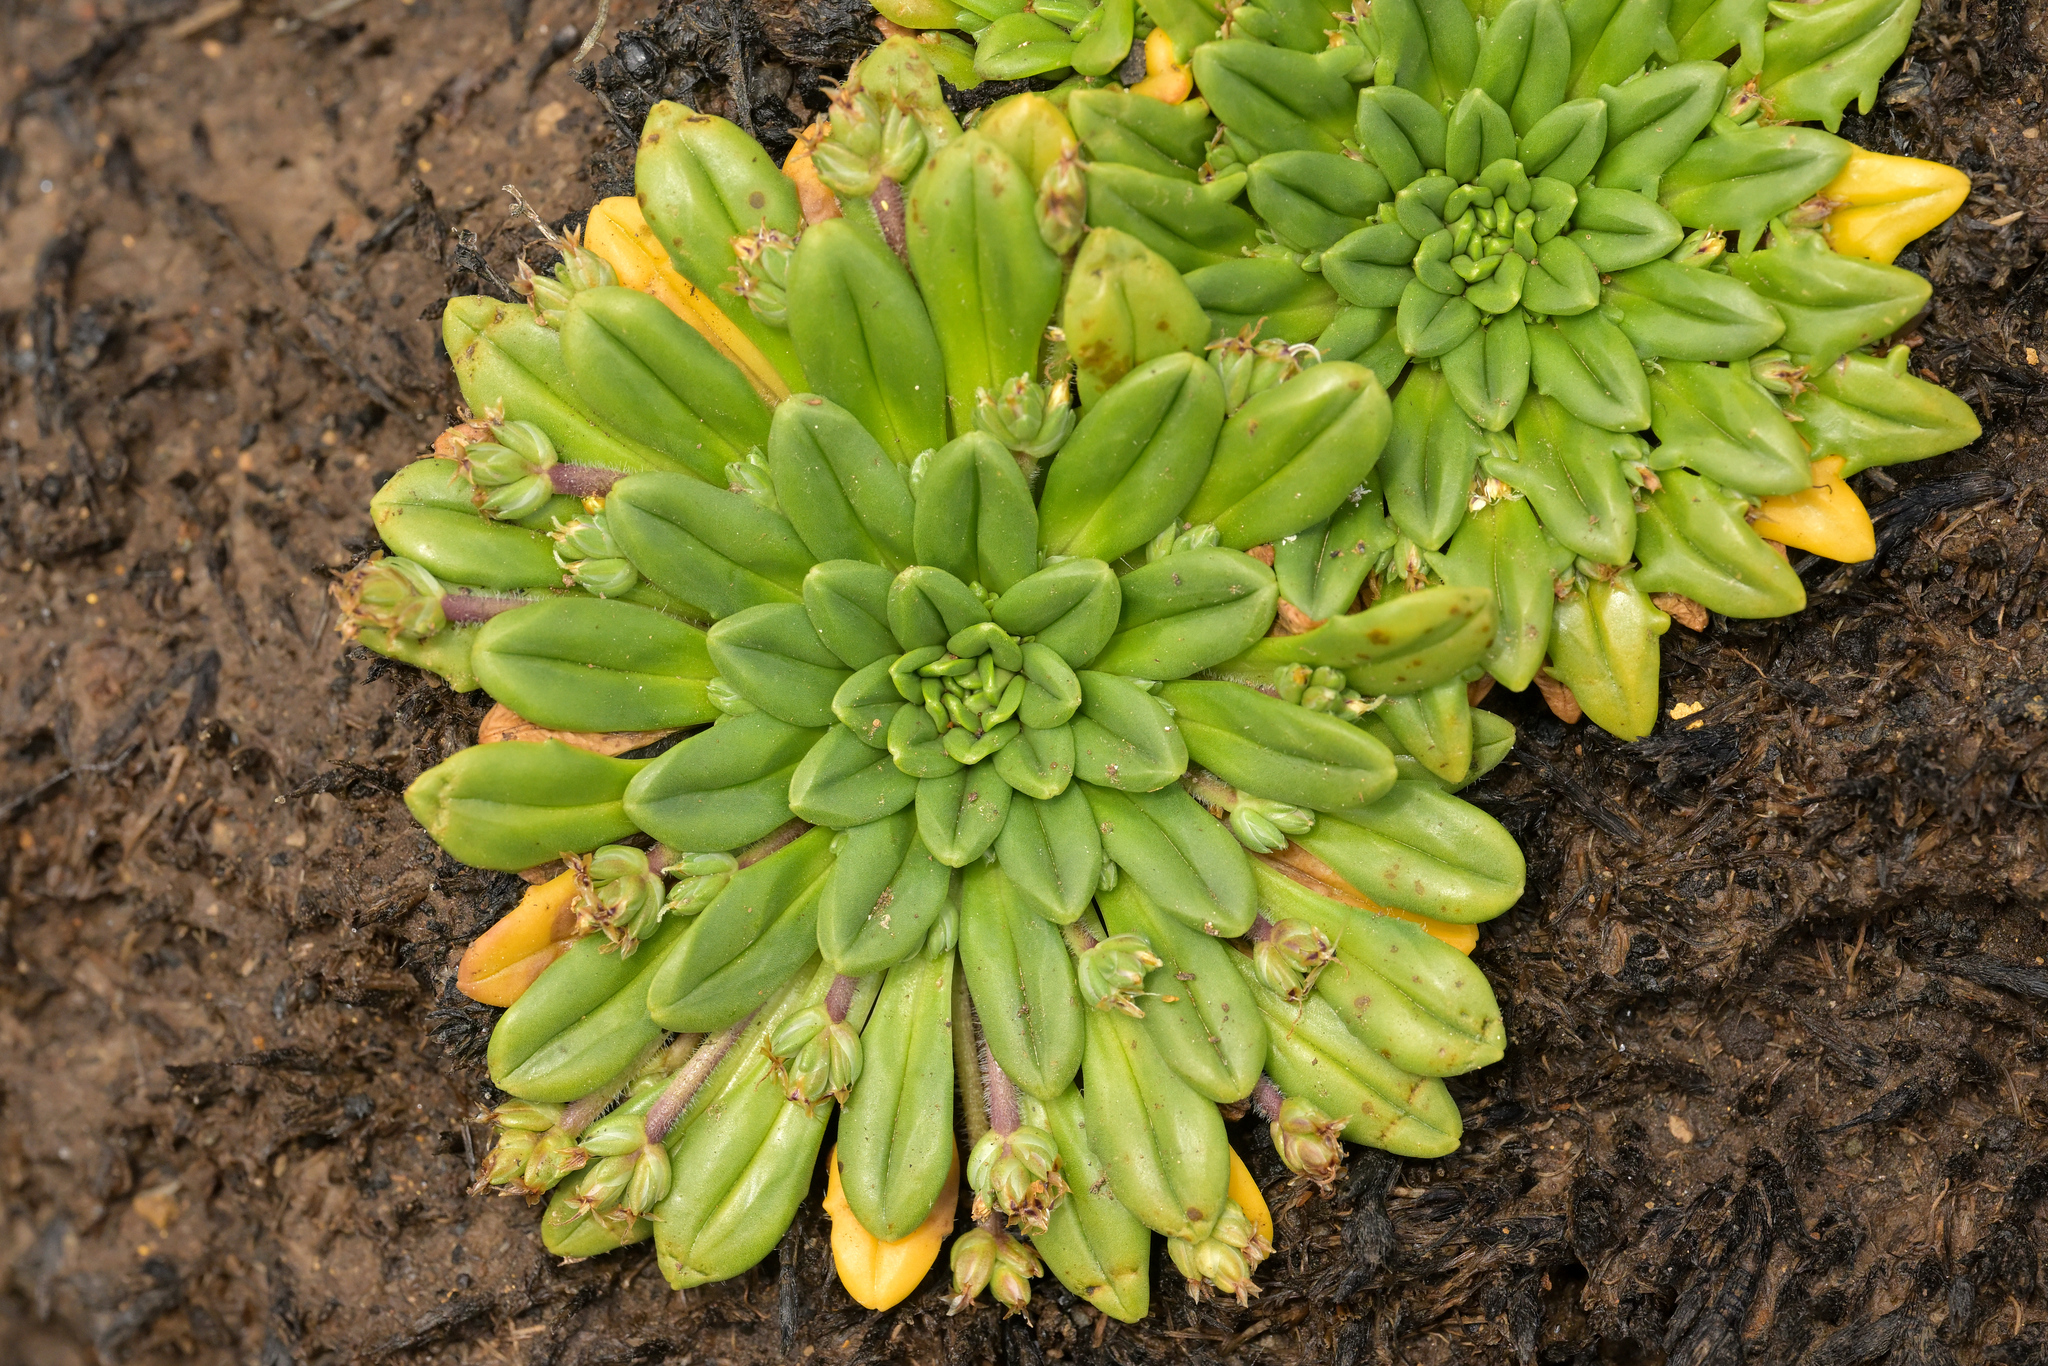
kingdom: Plantae
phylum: Tracheophyta
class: Magnoliopsida
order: Lamiales
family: Plantaginaceae
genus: Plantago
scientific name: Plantago brownii
